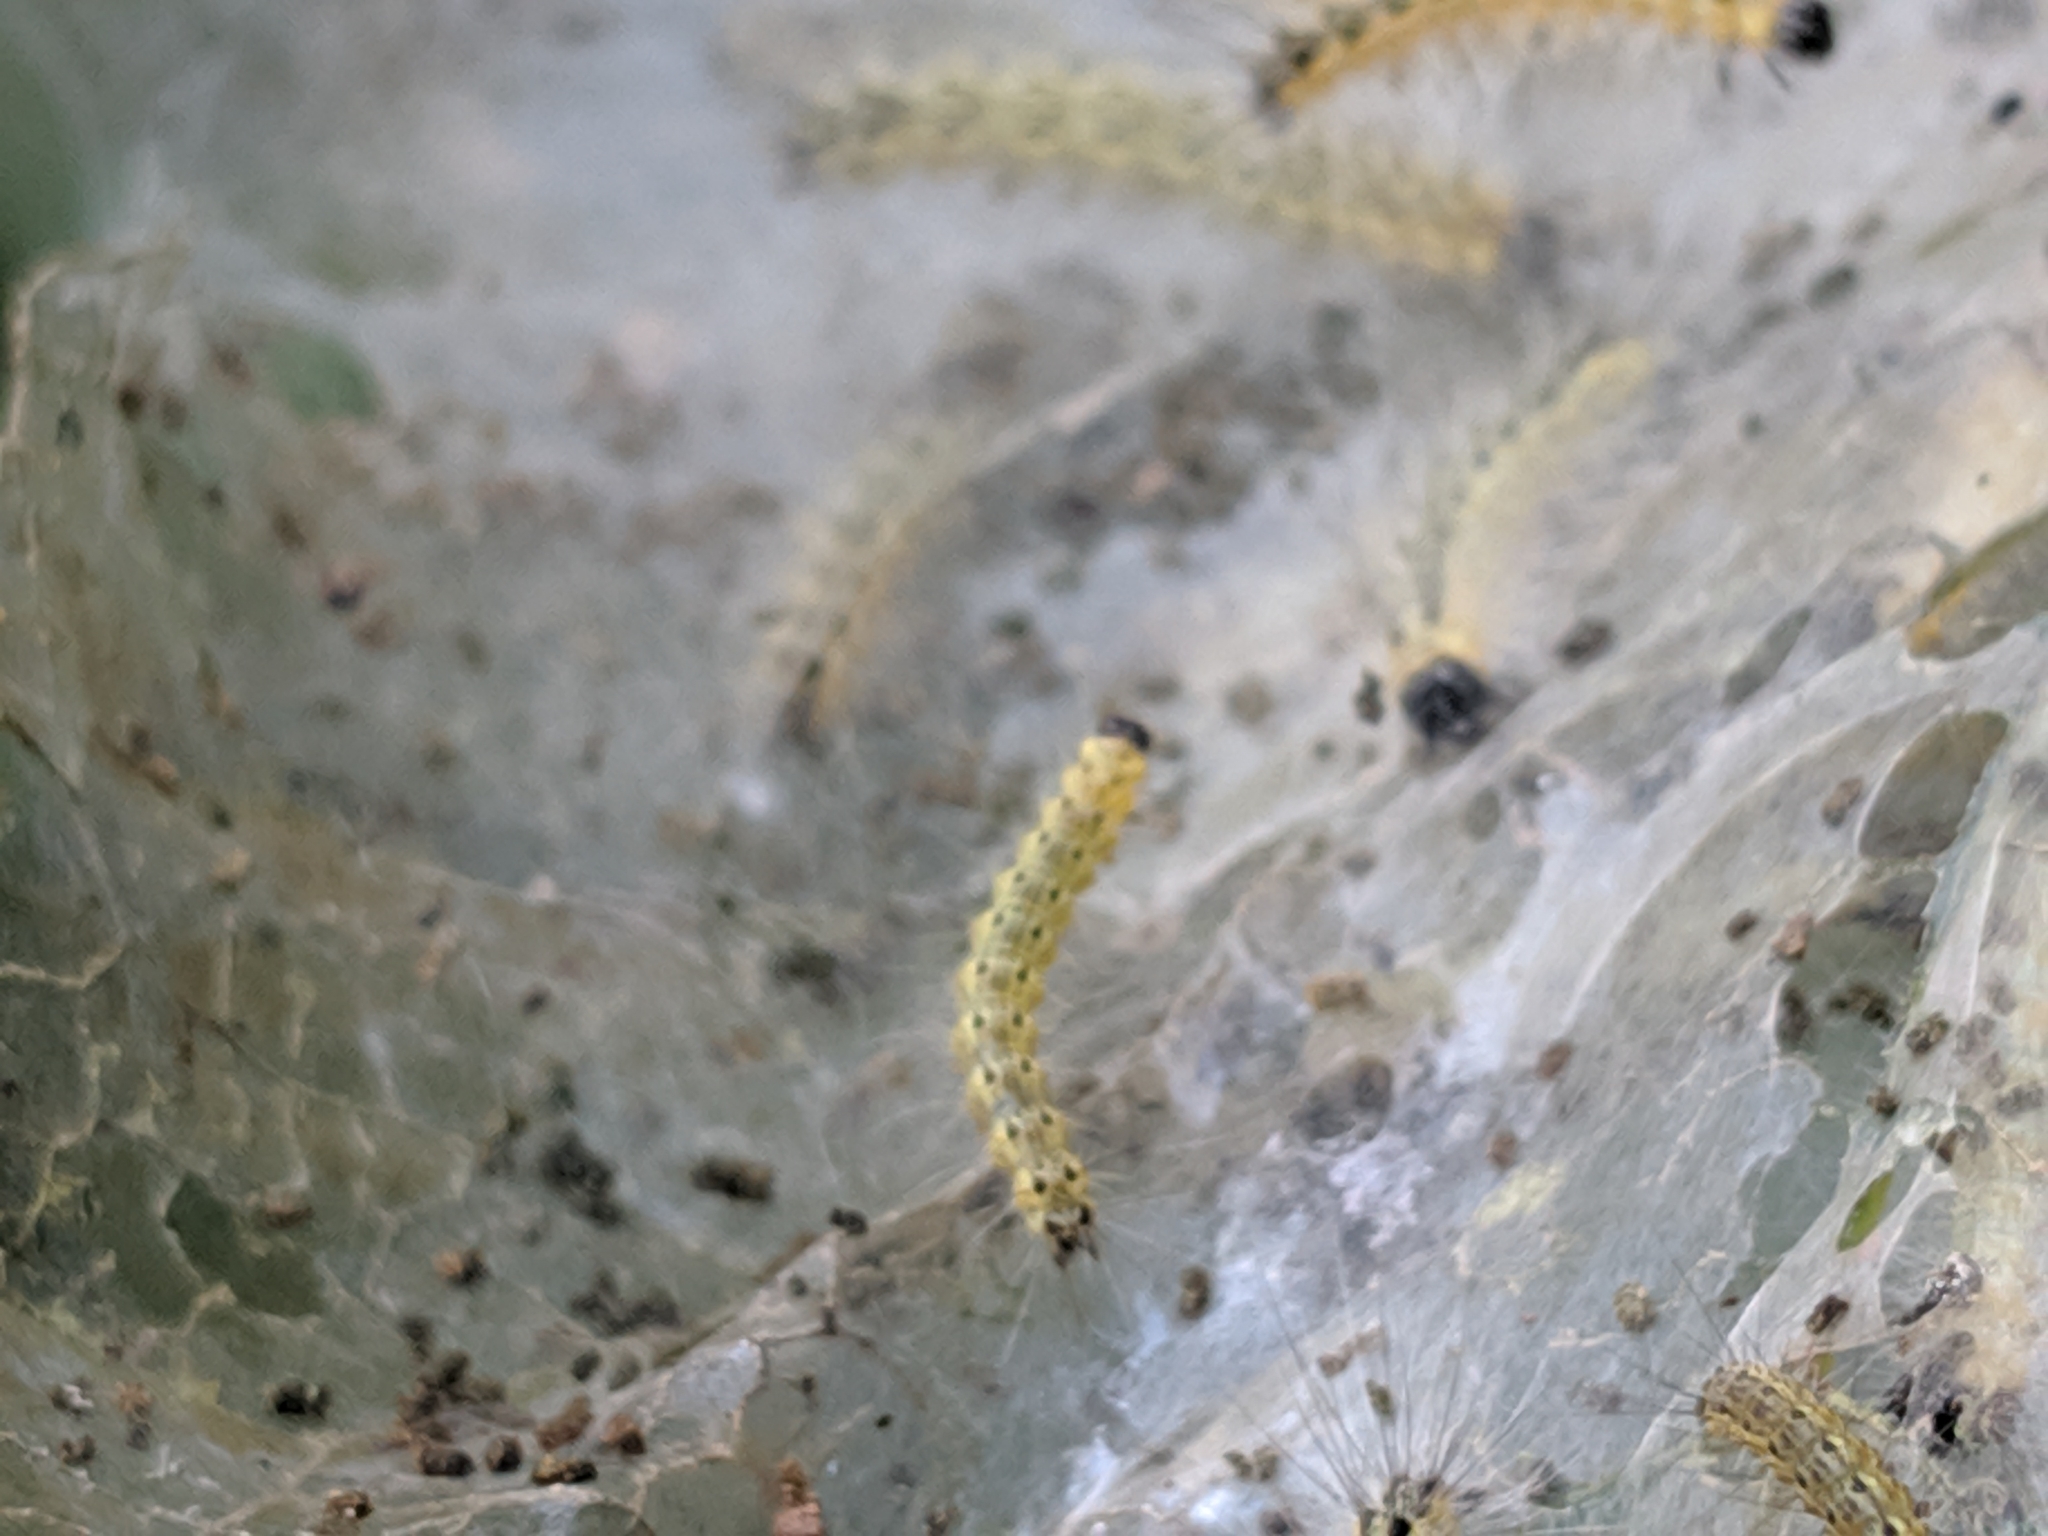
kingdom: Animalia
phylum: Arthropoda
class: Insecta
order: Lepidoptera
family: Erebidae
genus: Hyphantria
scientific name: Hyphantria cunea
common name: American white moth
